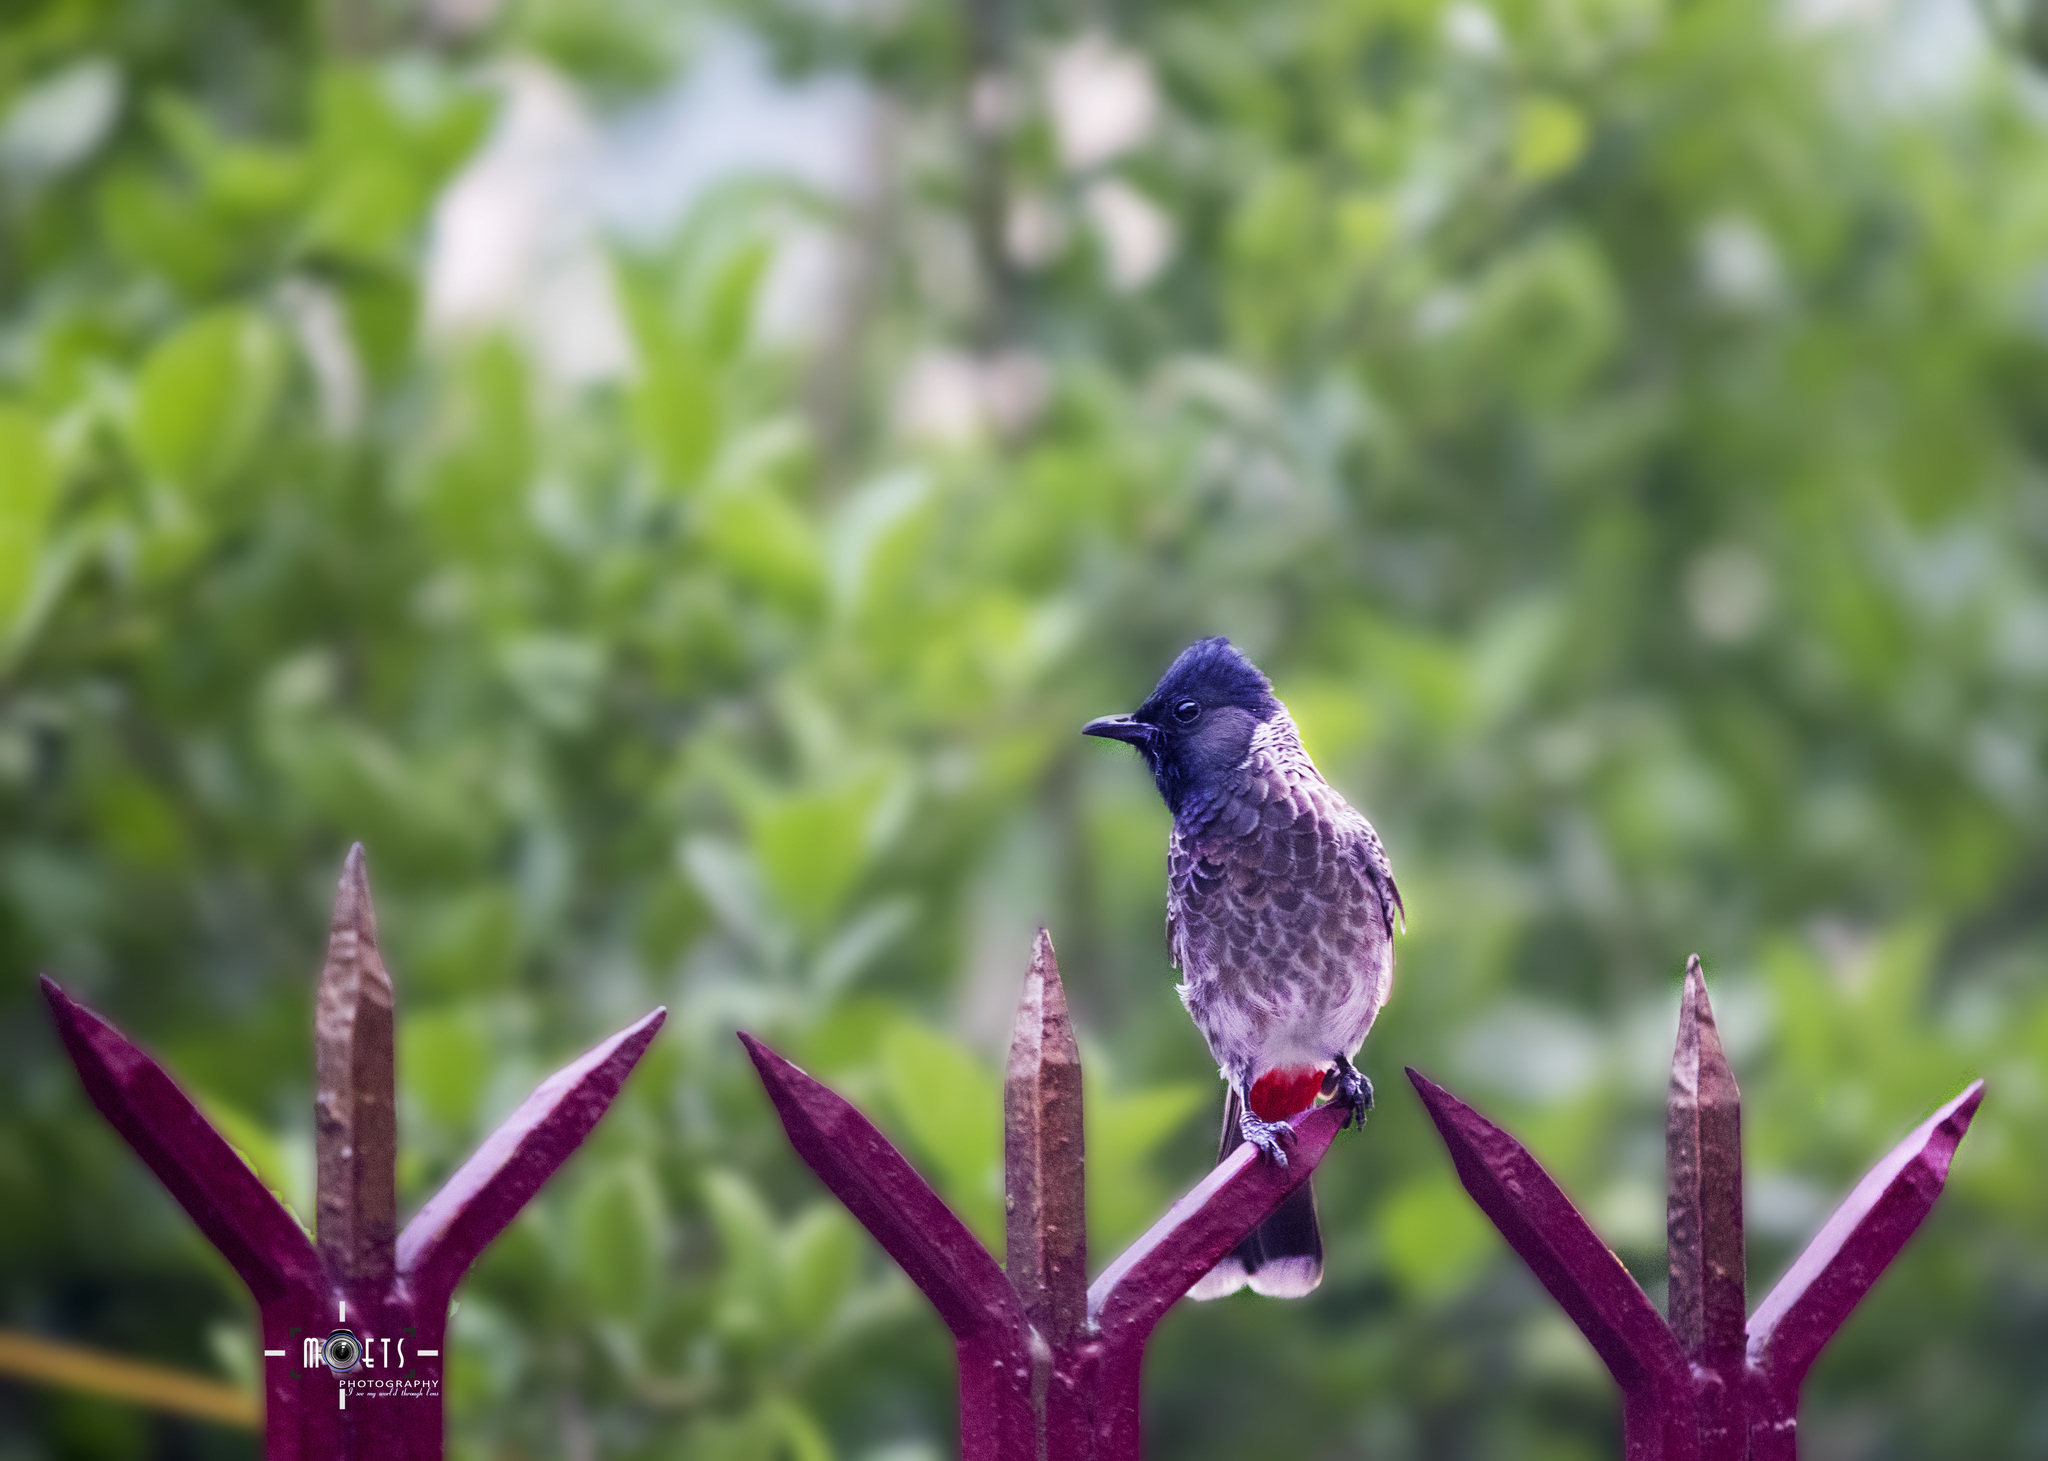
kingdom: Animalia
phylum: Chordata
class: Aves
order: Passeriformes
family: Pycnonotidae
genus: Pycnonotus
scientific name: Pycnonotus cafer
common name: Red-vented bulbul
